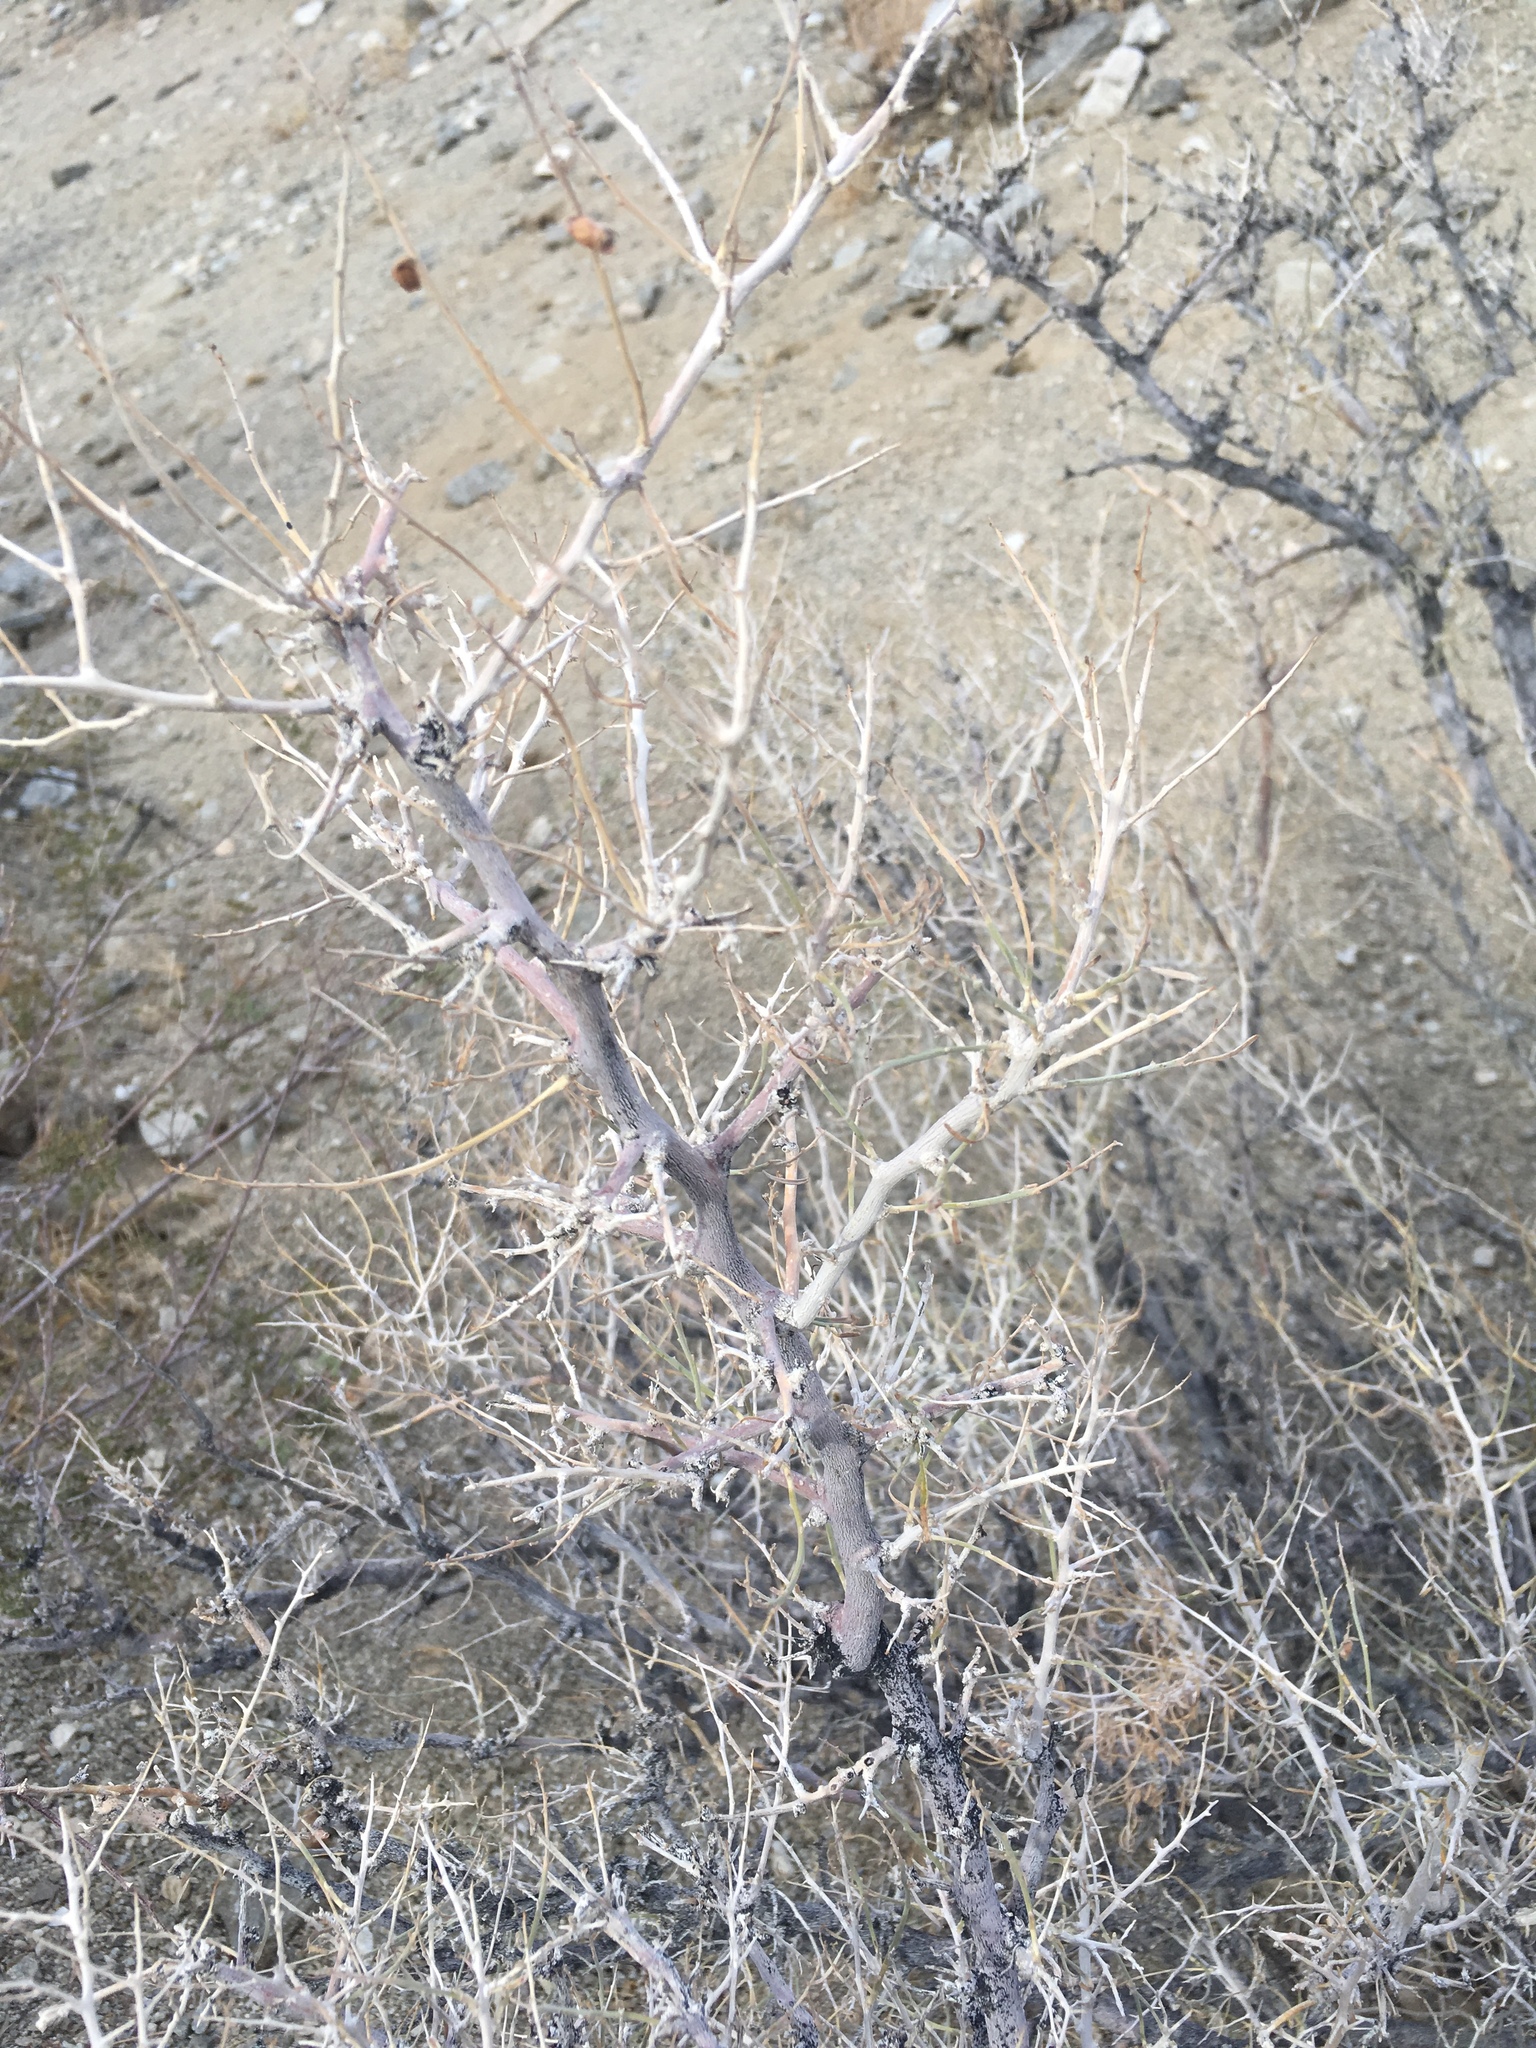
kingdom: Plantae
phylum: Tracheophyta
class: Magnoliopsida
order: Fabales
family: Fabaceae
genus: Psorothamnus
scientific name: Psorothamnus schottii
